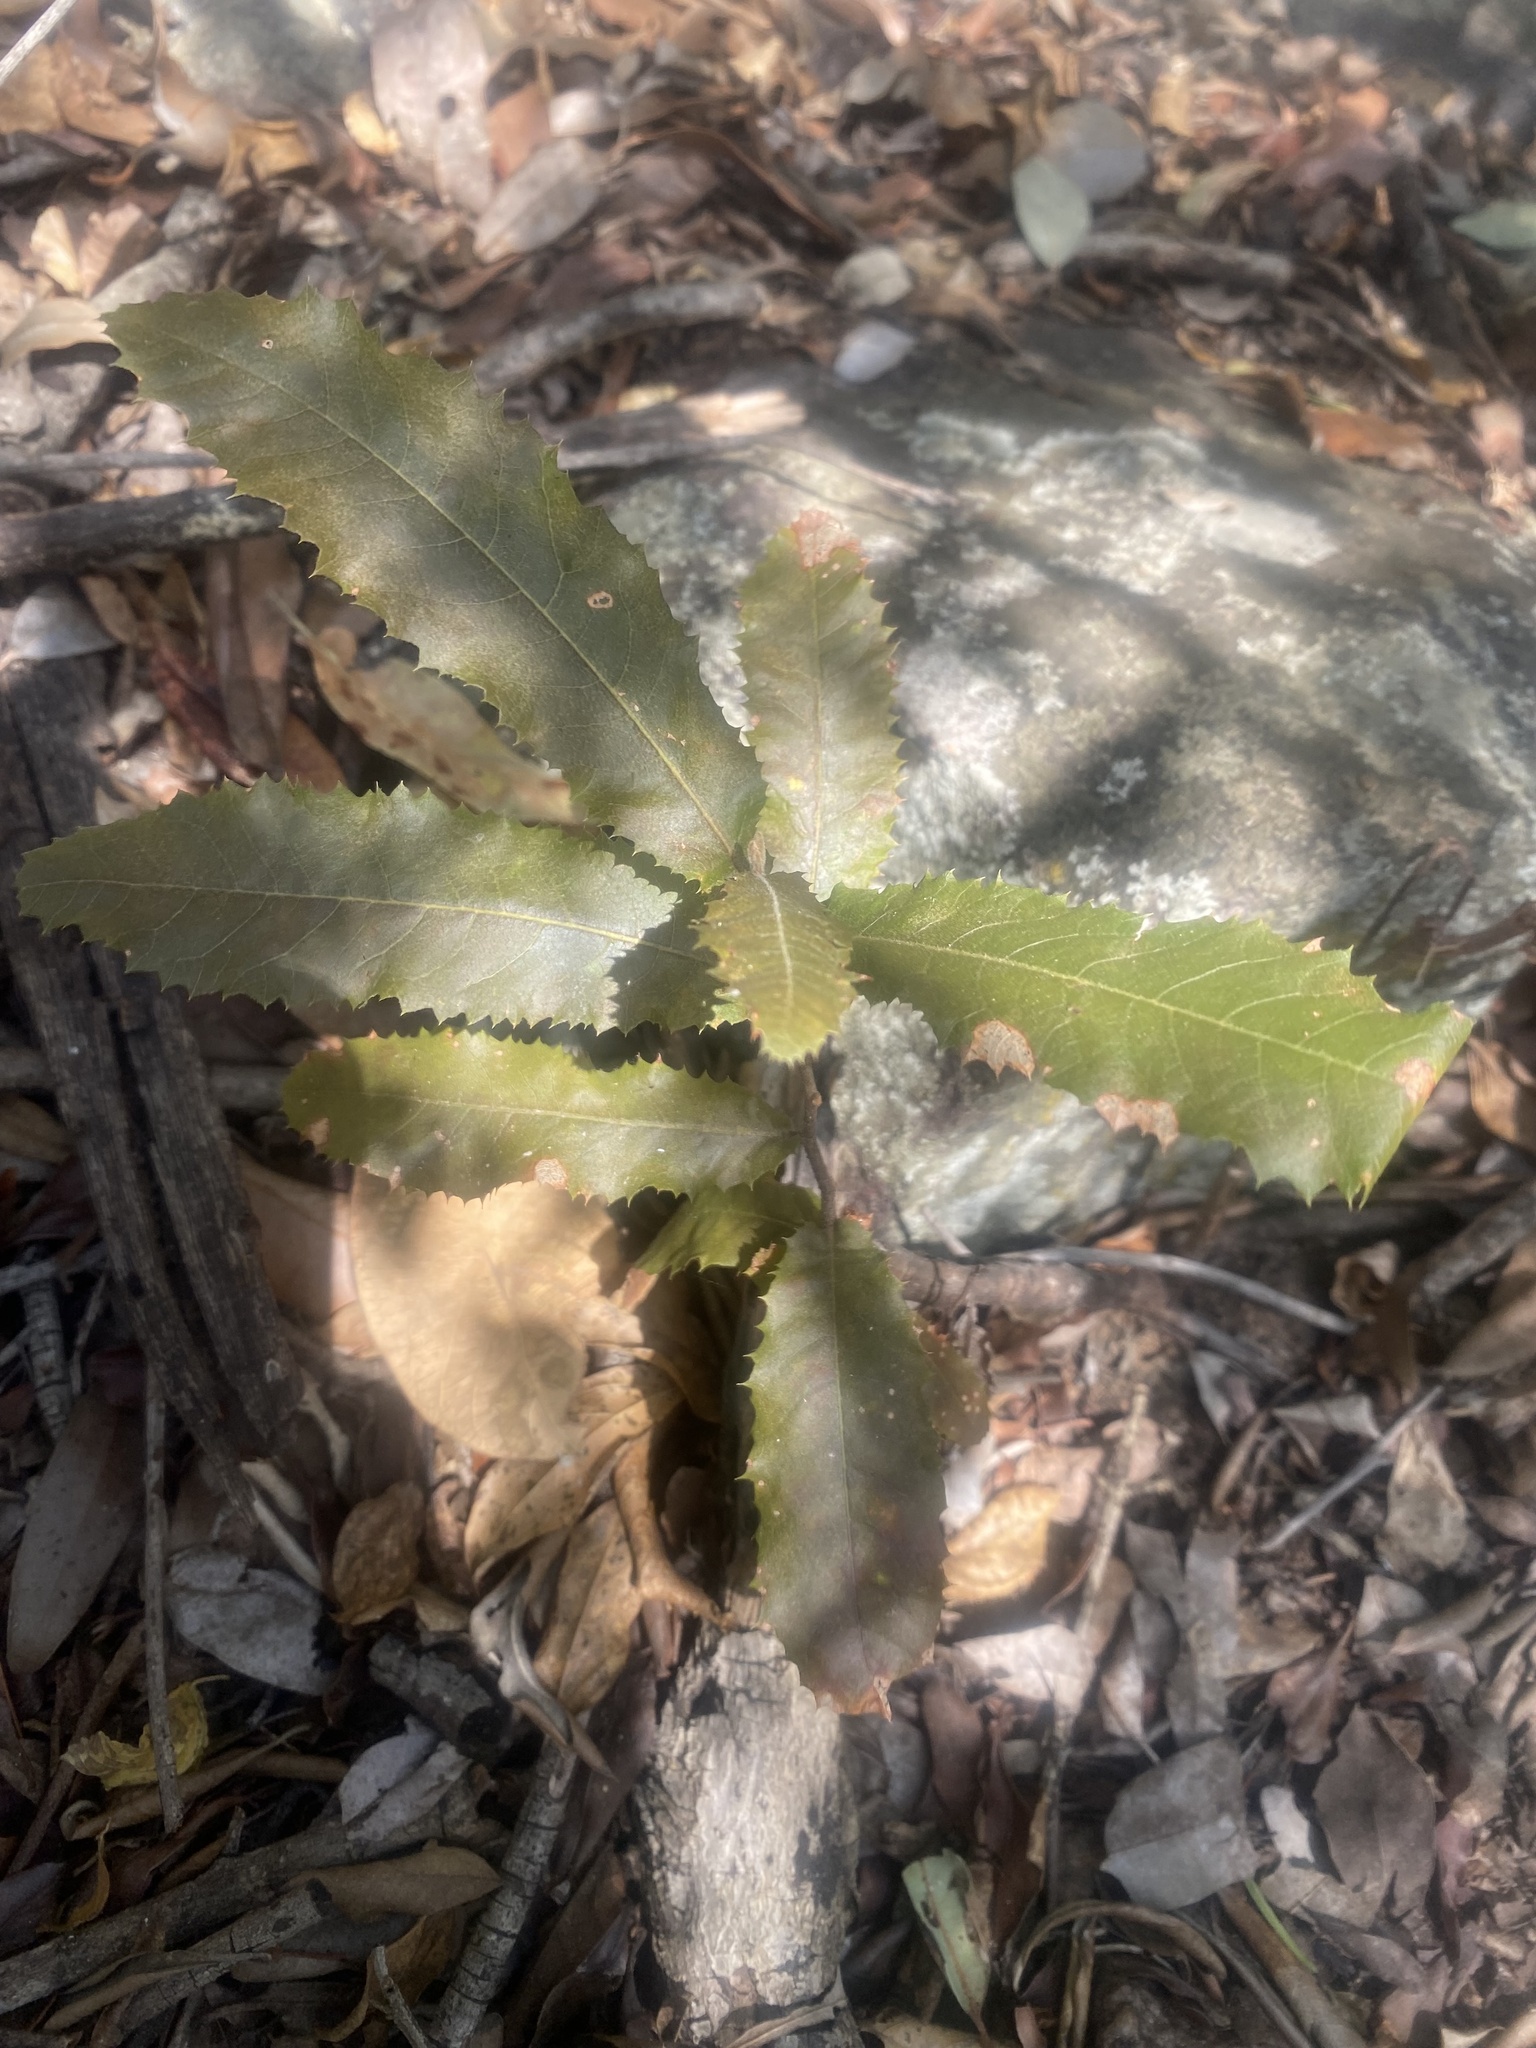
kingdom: Plantae
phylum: Tracheophyta
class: Magnoliopsida
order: Sapindales
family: Sapindaceae
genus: Pappea
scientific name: Pappea capensis
